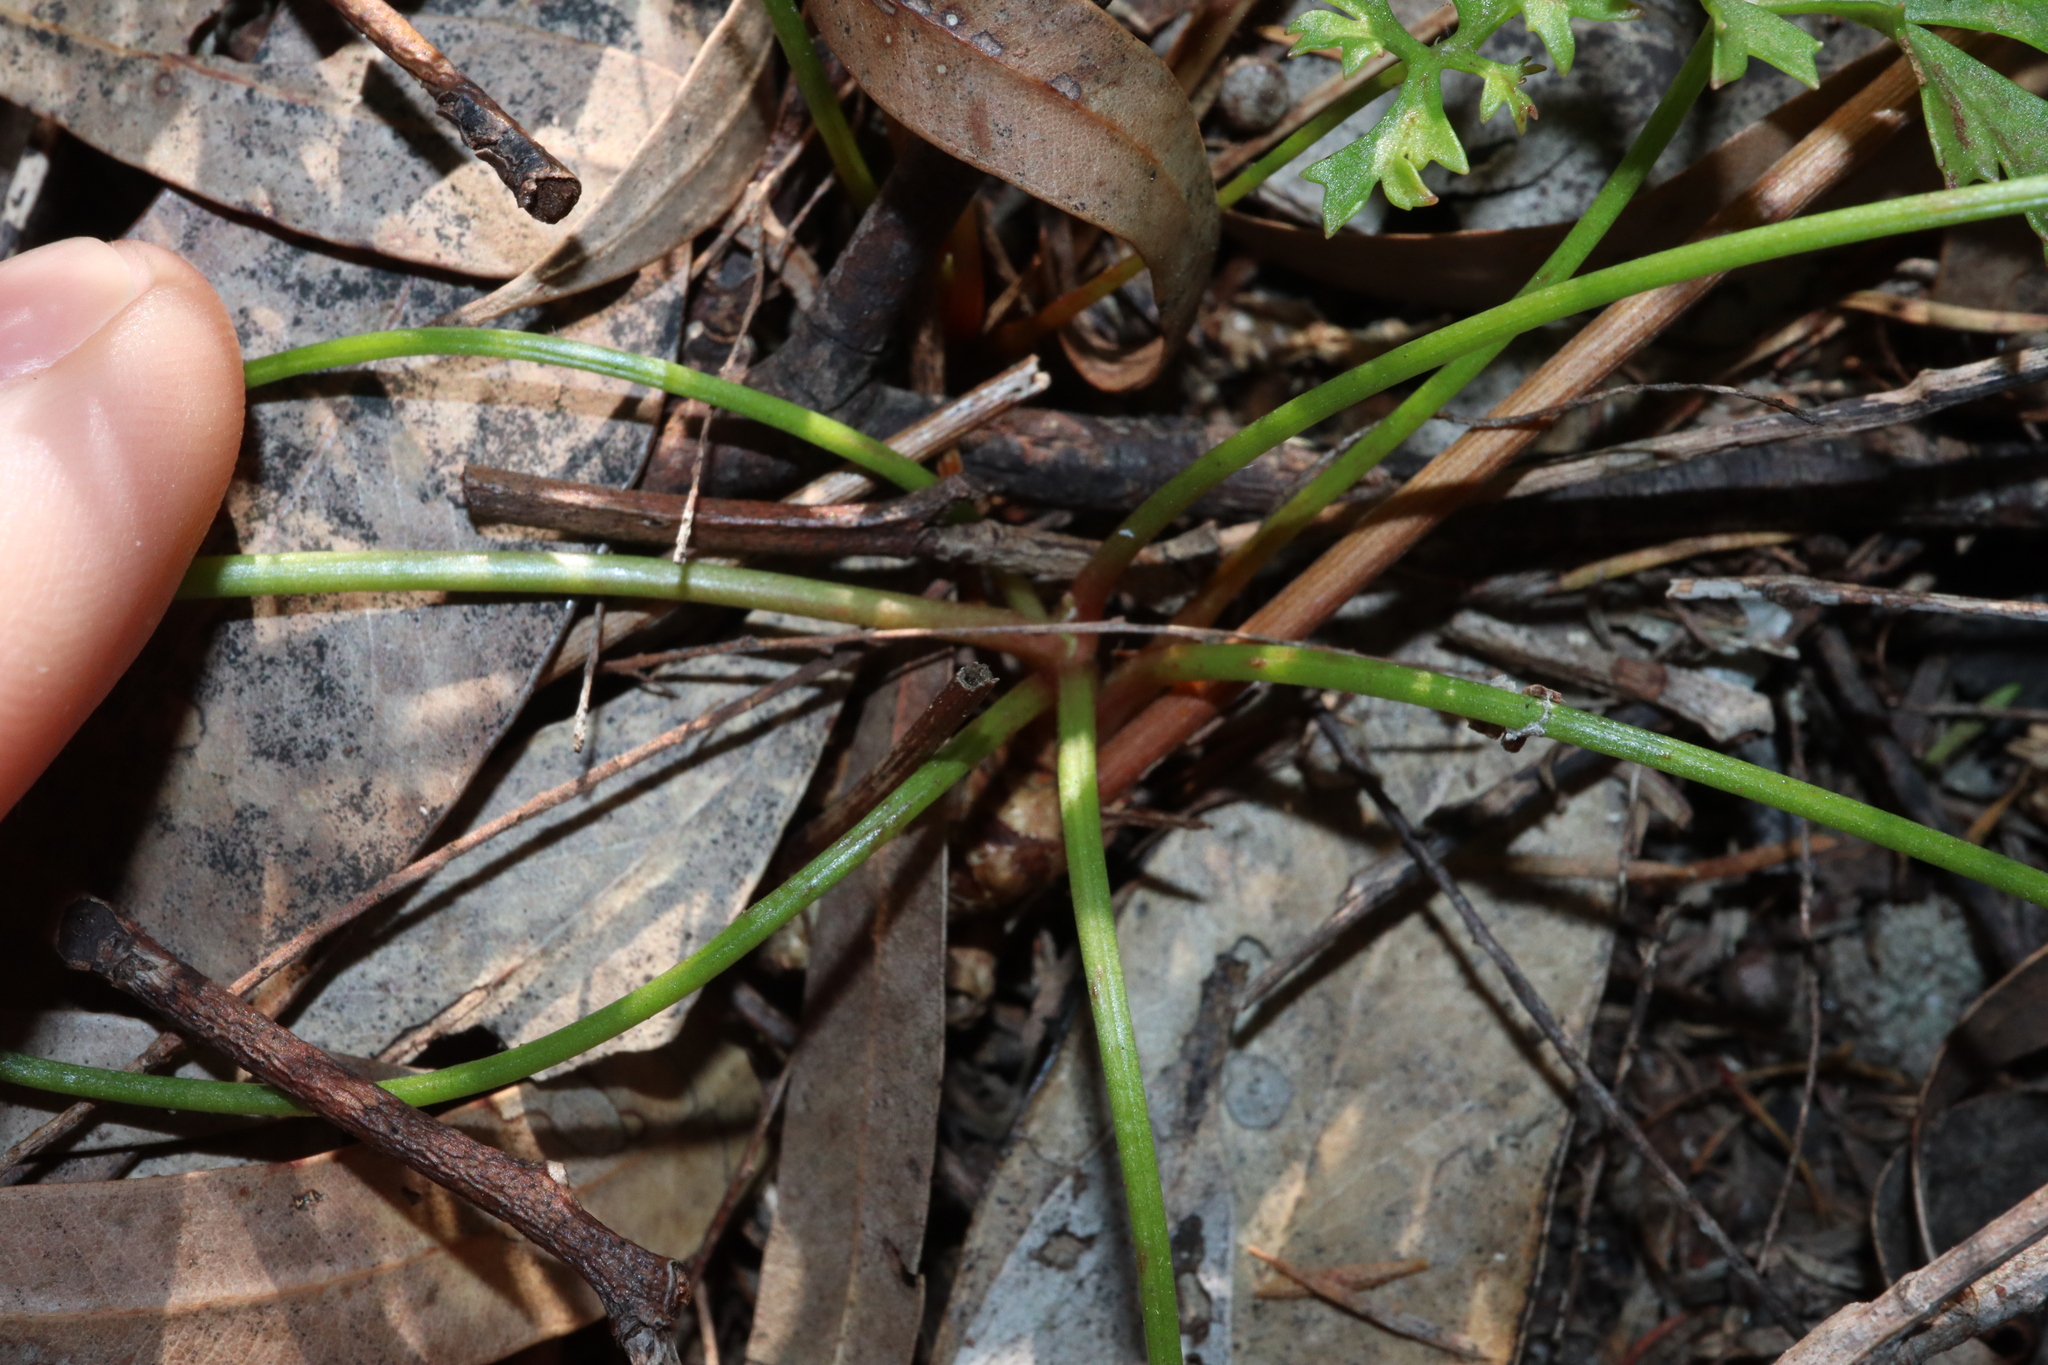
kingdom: Plantae
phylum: Tracheophyta
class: Magnoliopsida
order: Apiales
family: Araliaceae
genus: Trachymene
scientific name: Trachymene incisa
